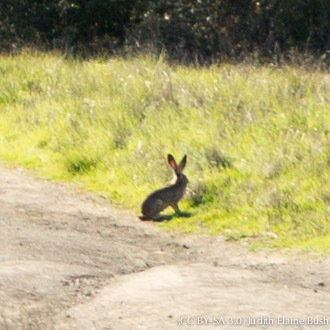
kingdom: Animalia
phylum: Chordata
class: Mammalia
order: Lagomorpha
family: Leporidae
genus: Lepus
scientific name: Lepus californicus
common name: Black-tailed jackrabbit
